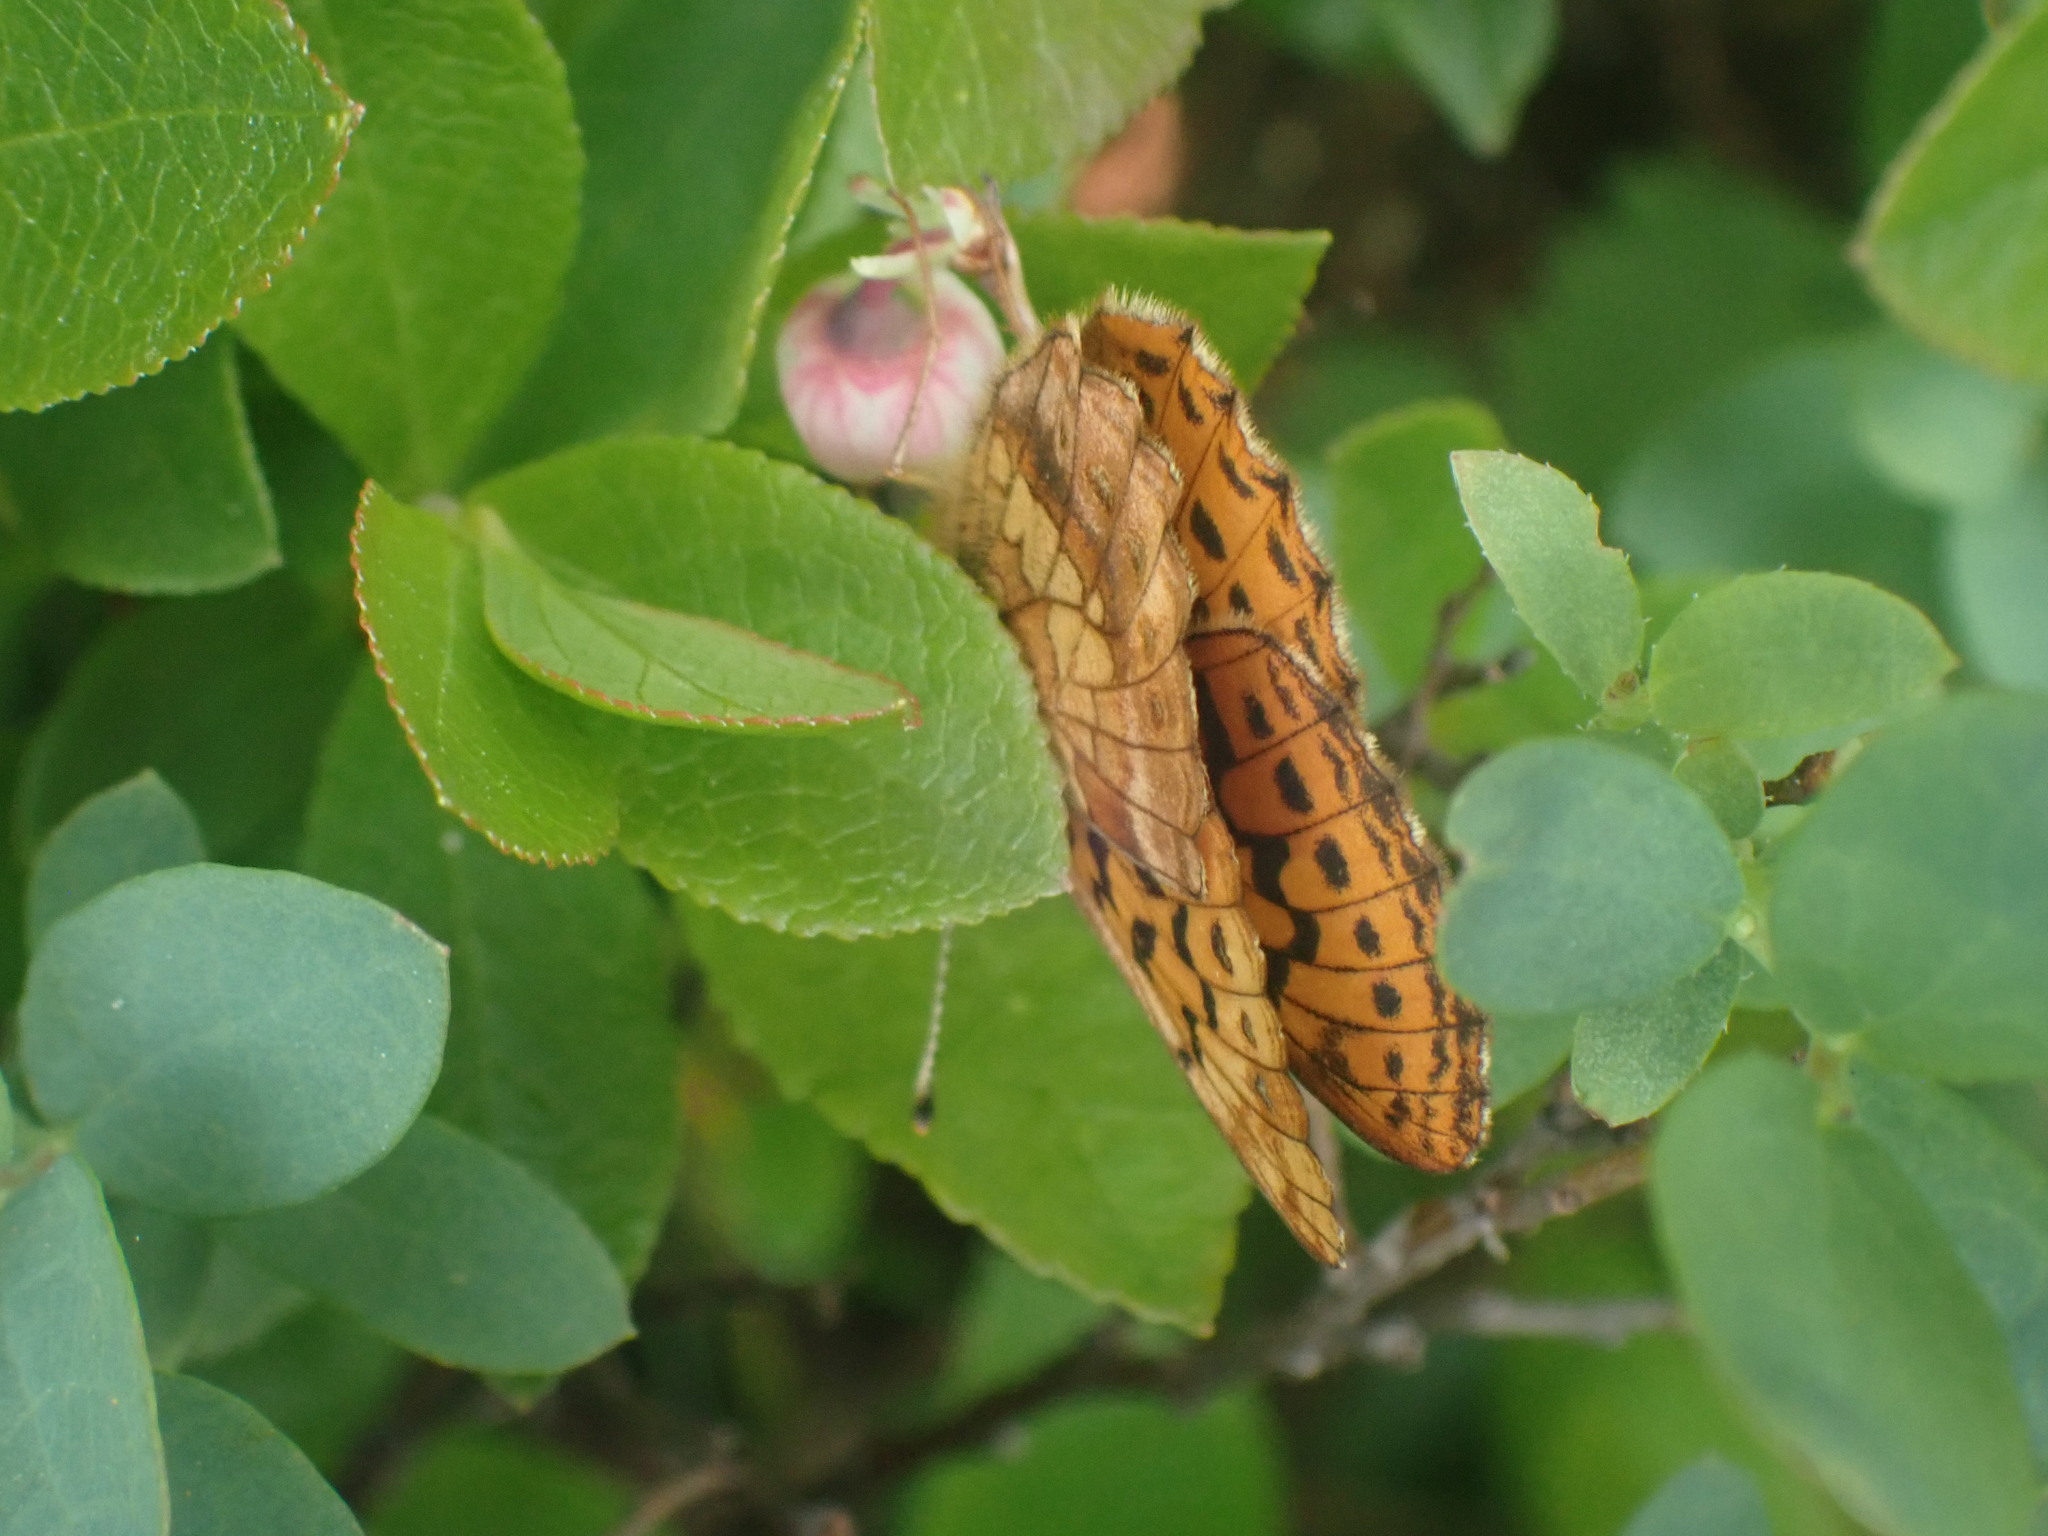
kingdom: Animalia
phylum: Arthropoda
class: Insecta
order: Lepidoptera
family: Nymphalidae
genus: Boloria
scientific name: Boloria epithore
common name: Pacific fritillary
